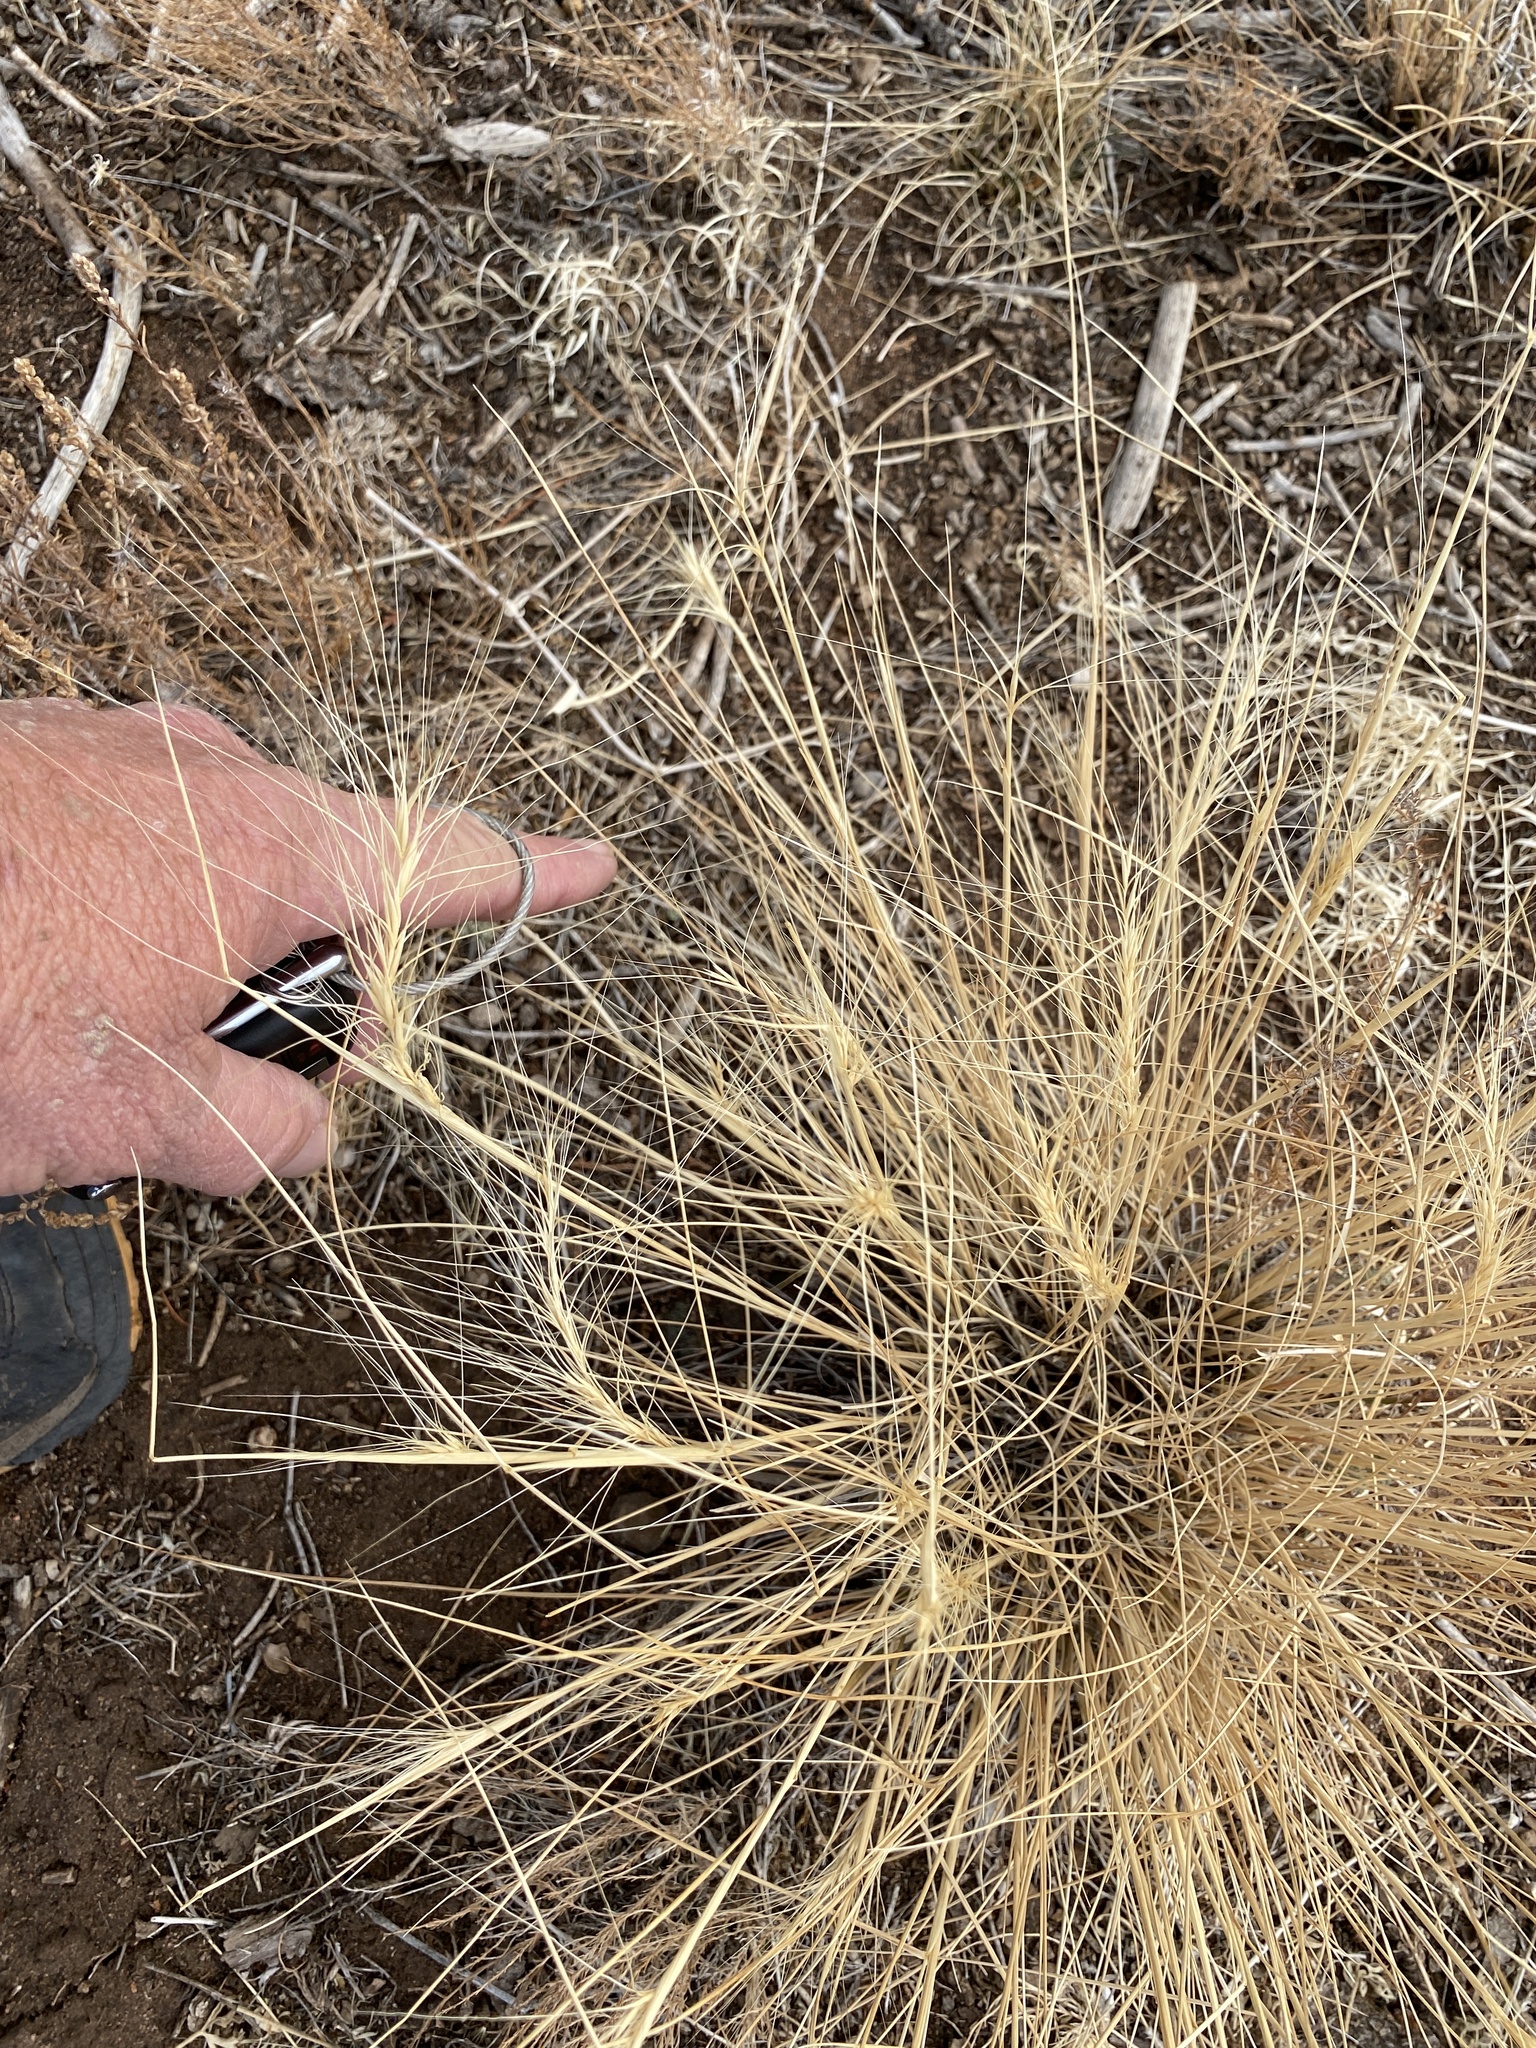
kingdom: Plantae
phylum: Tracheophyta
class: Liliopsida
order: Poales
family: Poaceae
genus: Elymus
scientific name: Elymus elymoides
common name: Bottlebrush squirreltail
